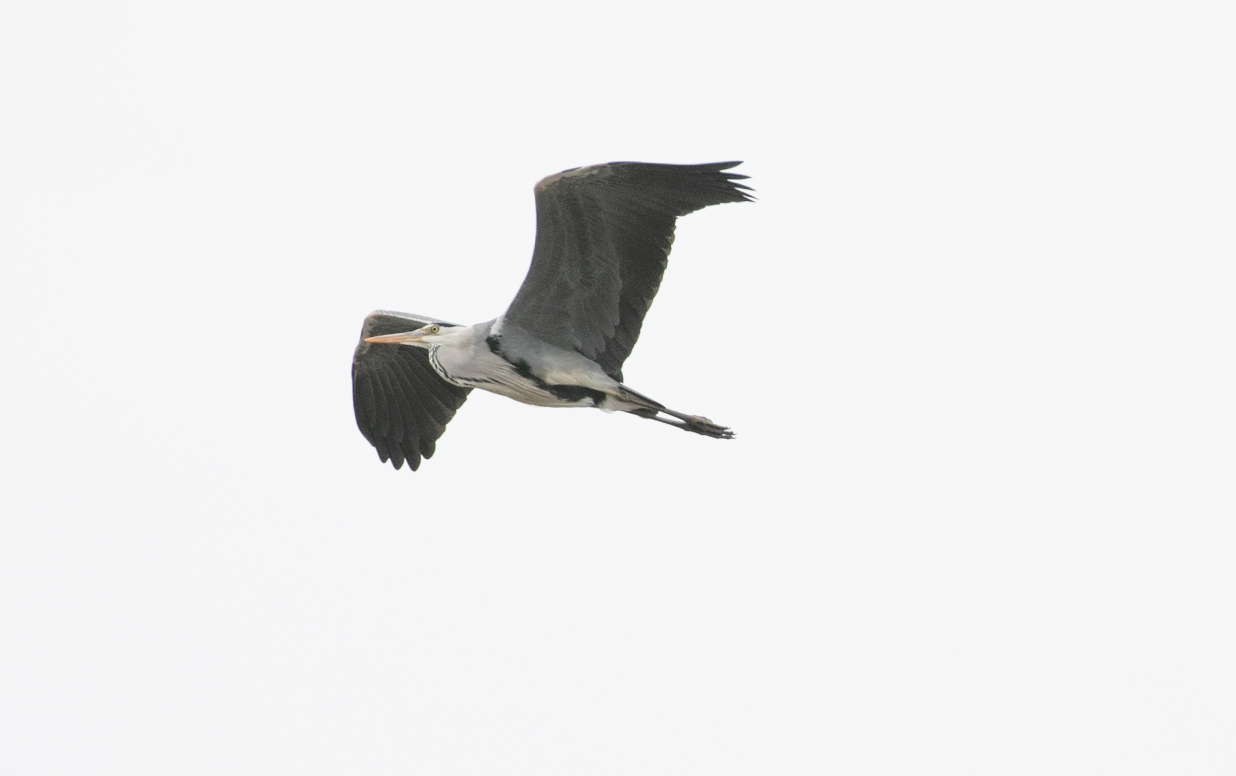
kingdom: Animalia
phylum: Chordata
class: Aves
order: Pelecaniformes
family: Ardeidae
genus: Ardea
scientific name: Ardea cinerea
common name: Grey heron
